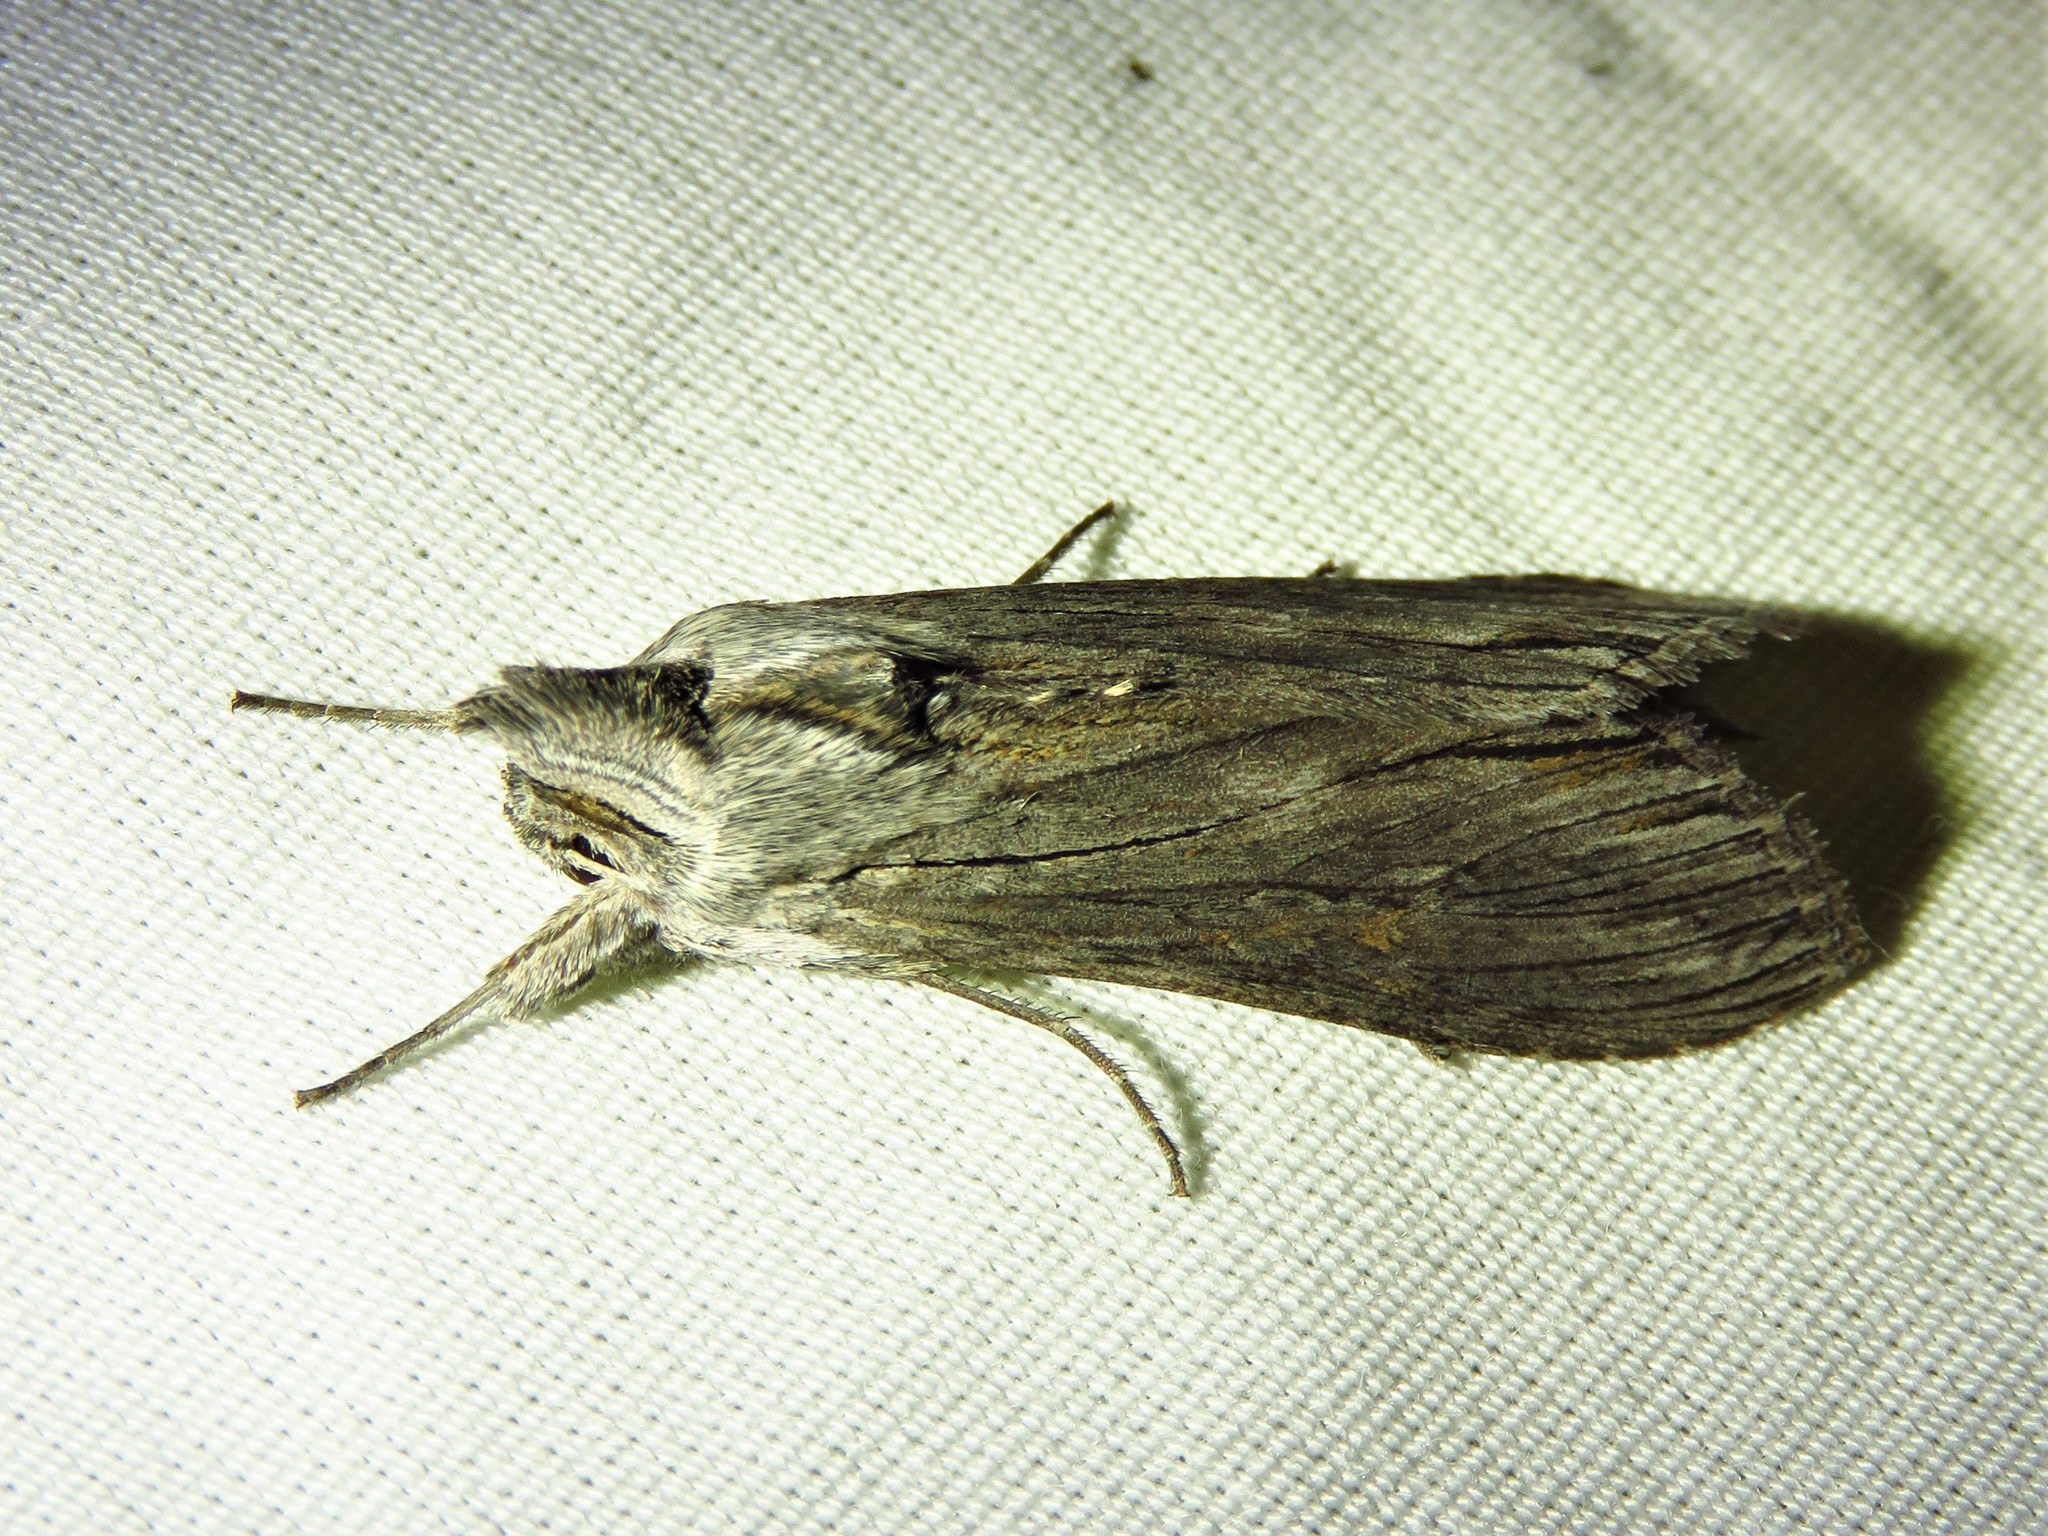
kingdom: Animalia
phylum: Arthropoda
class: Insecta
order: Lepidoptera
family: Noctuidae
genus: Cucullia
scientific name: Cucullia laetifica
